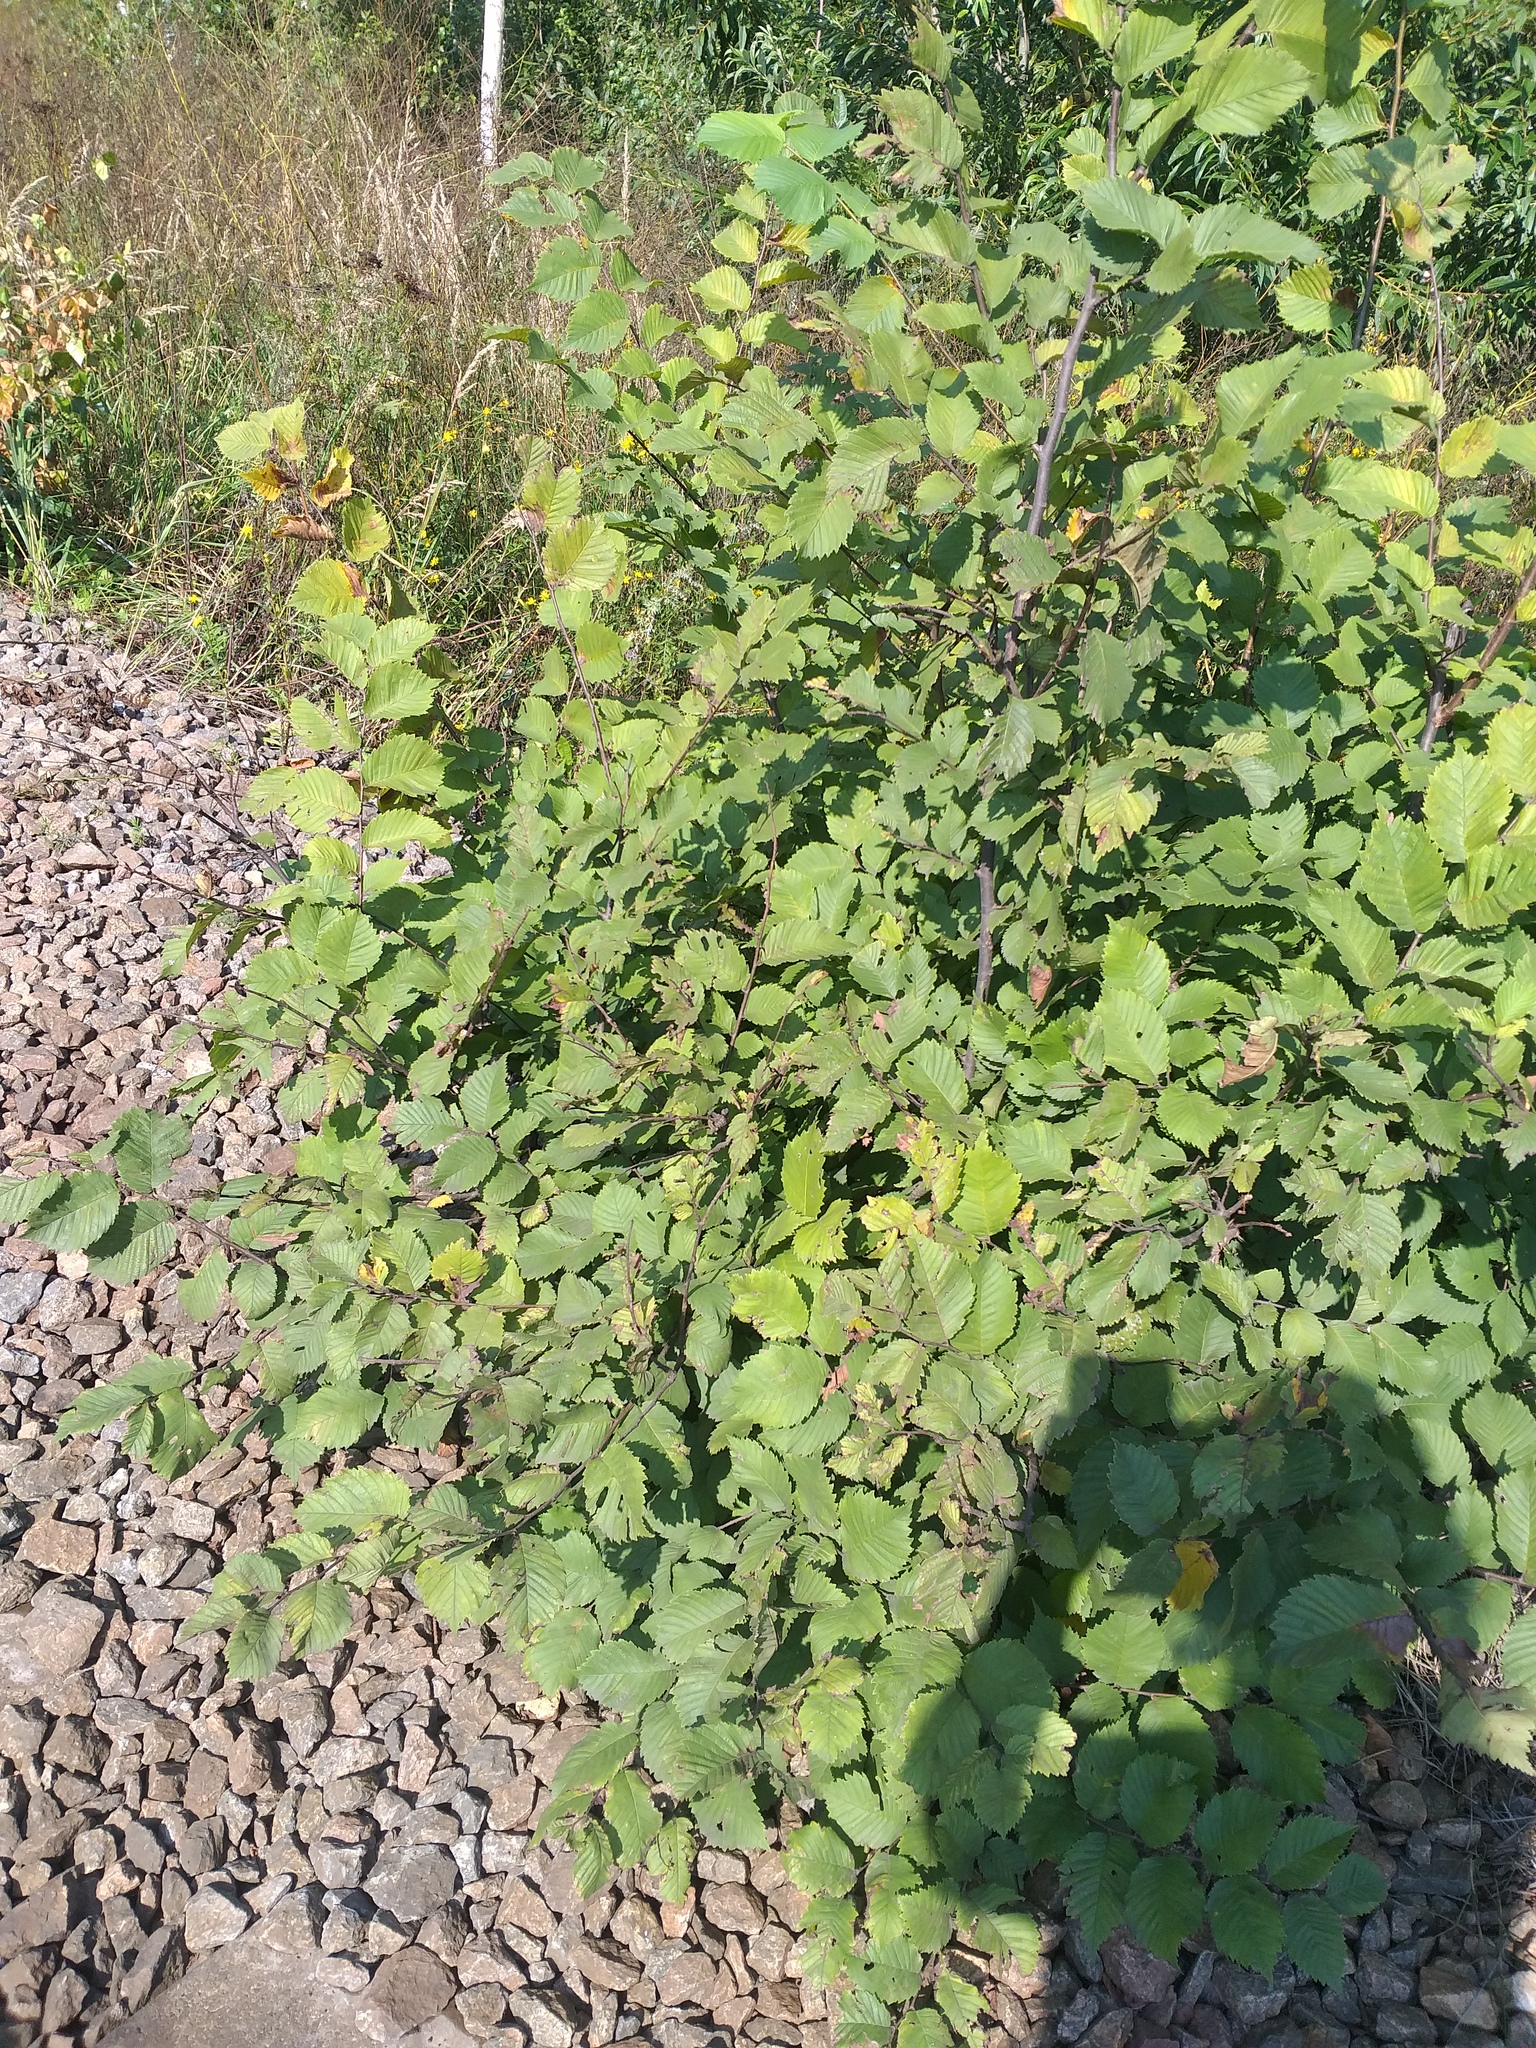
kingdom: Plantae
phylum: Tracheophyta
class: Magnoliopsida
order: Rosales
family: Ulmaceae
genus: Ulmus
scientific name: Ulmus laevis
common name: European white-elm
